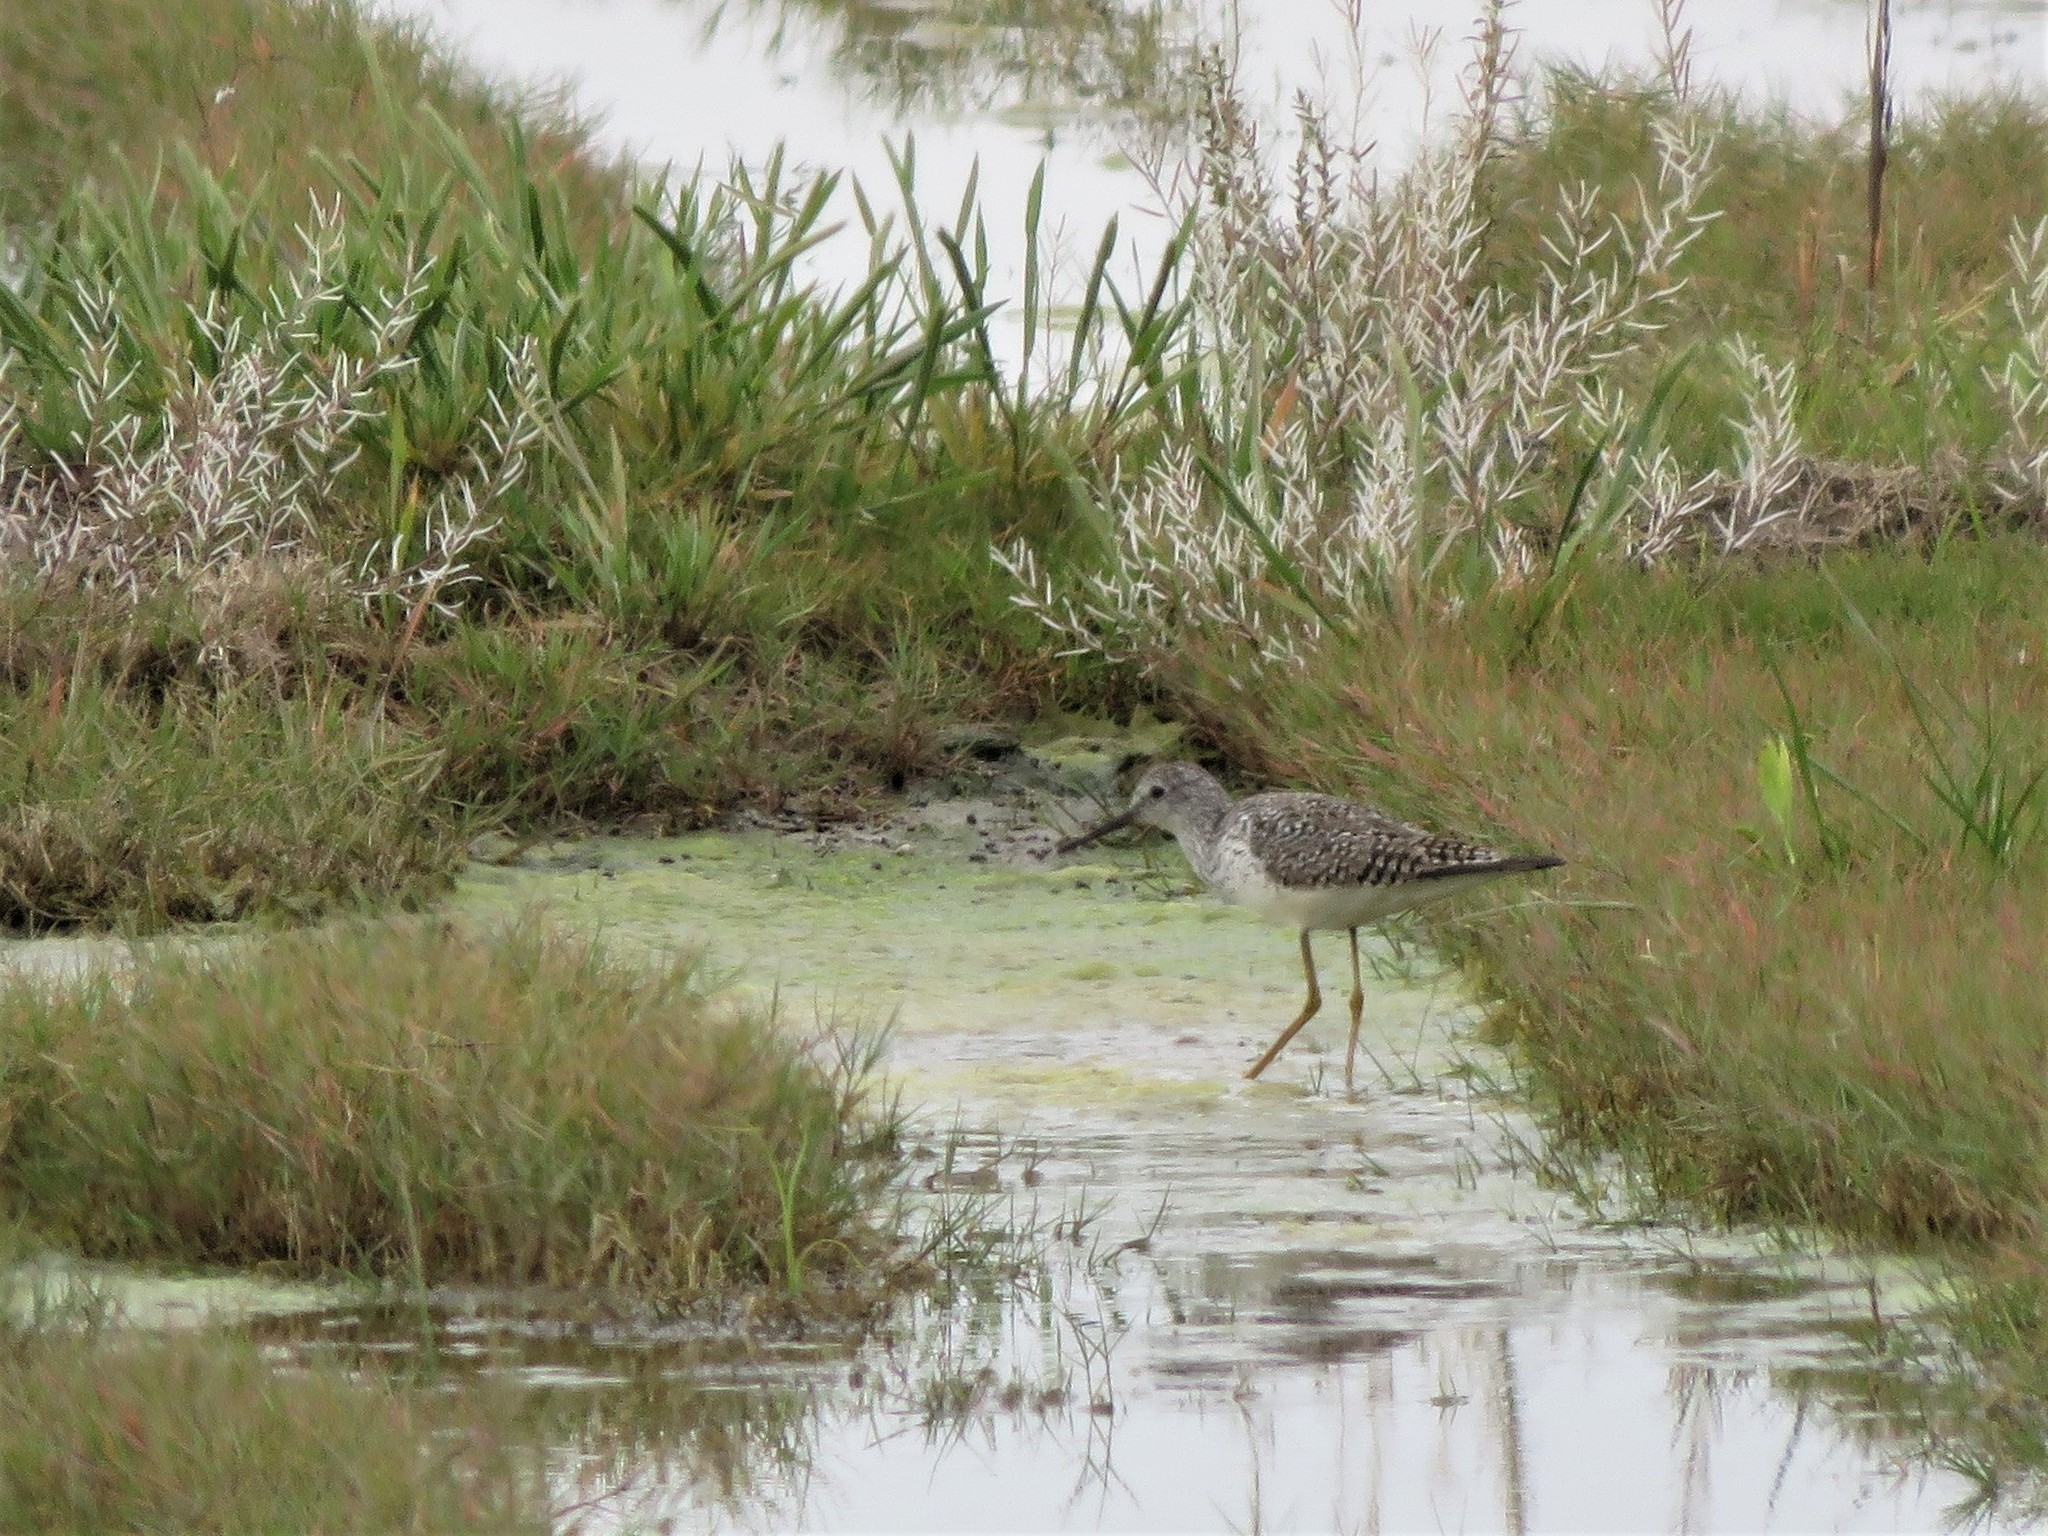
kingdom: Animalia
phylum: Chordata
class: Aves
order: Charadriiformes
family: Scolopacidae
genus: Tringa
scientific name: Tringa melanoleuca
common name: Greater yellowlegs
